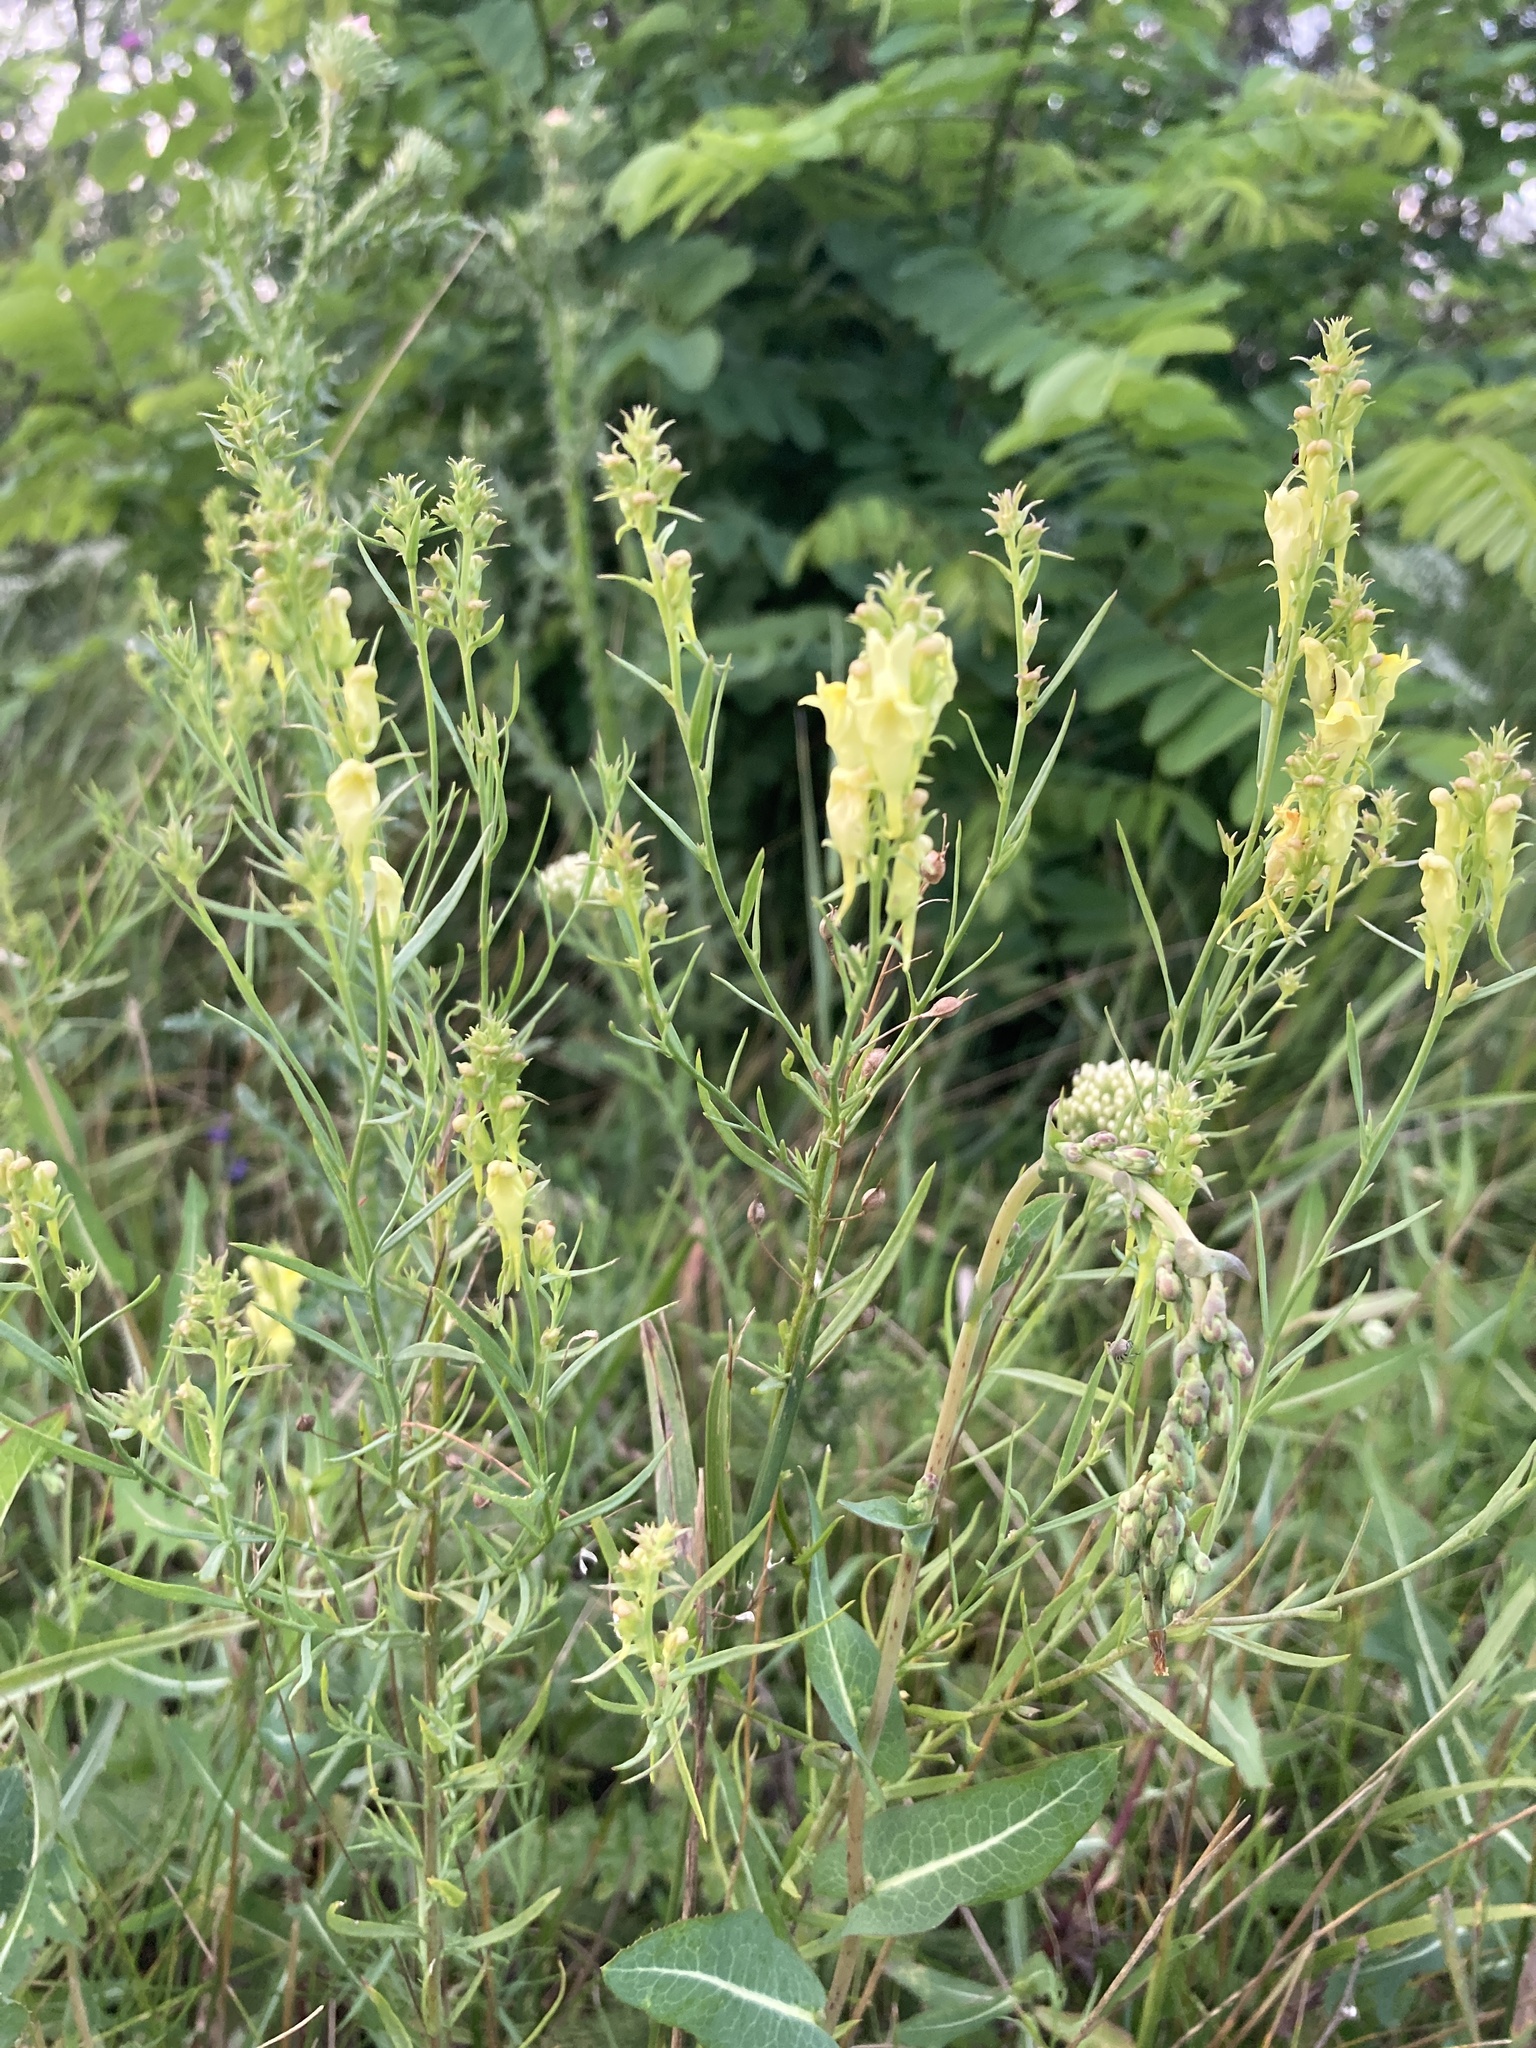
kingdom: Plantae
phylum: Tracheophyta
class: Magnoliopsida
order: Lamiales
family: Plantaginaceae
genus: Linaria
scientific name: Linaria vulgaris
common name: Butter and eggs
